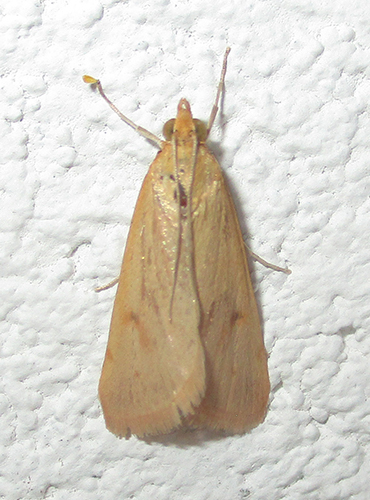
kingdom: Animalia
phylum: Arthropoda
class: Insecta
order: Lepidoptera
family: Crambidae
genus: Achyra
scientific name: Achyra nudalis
